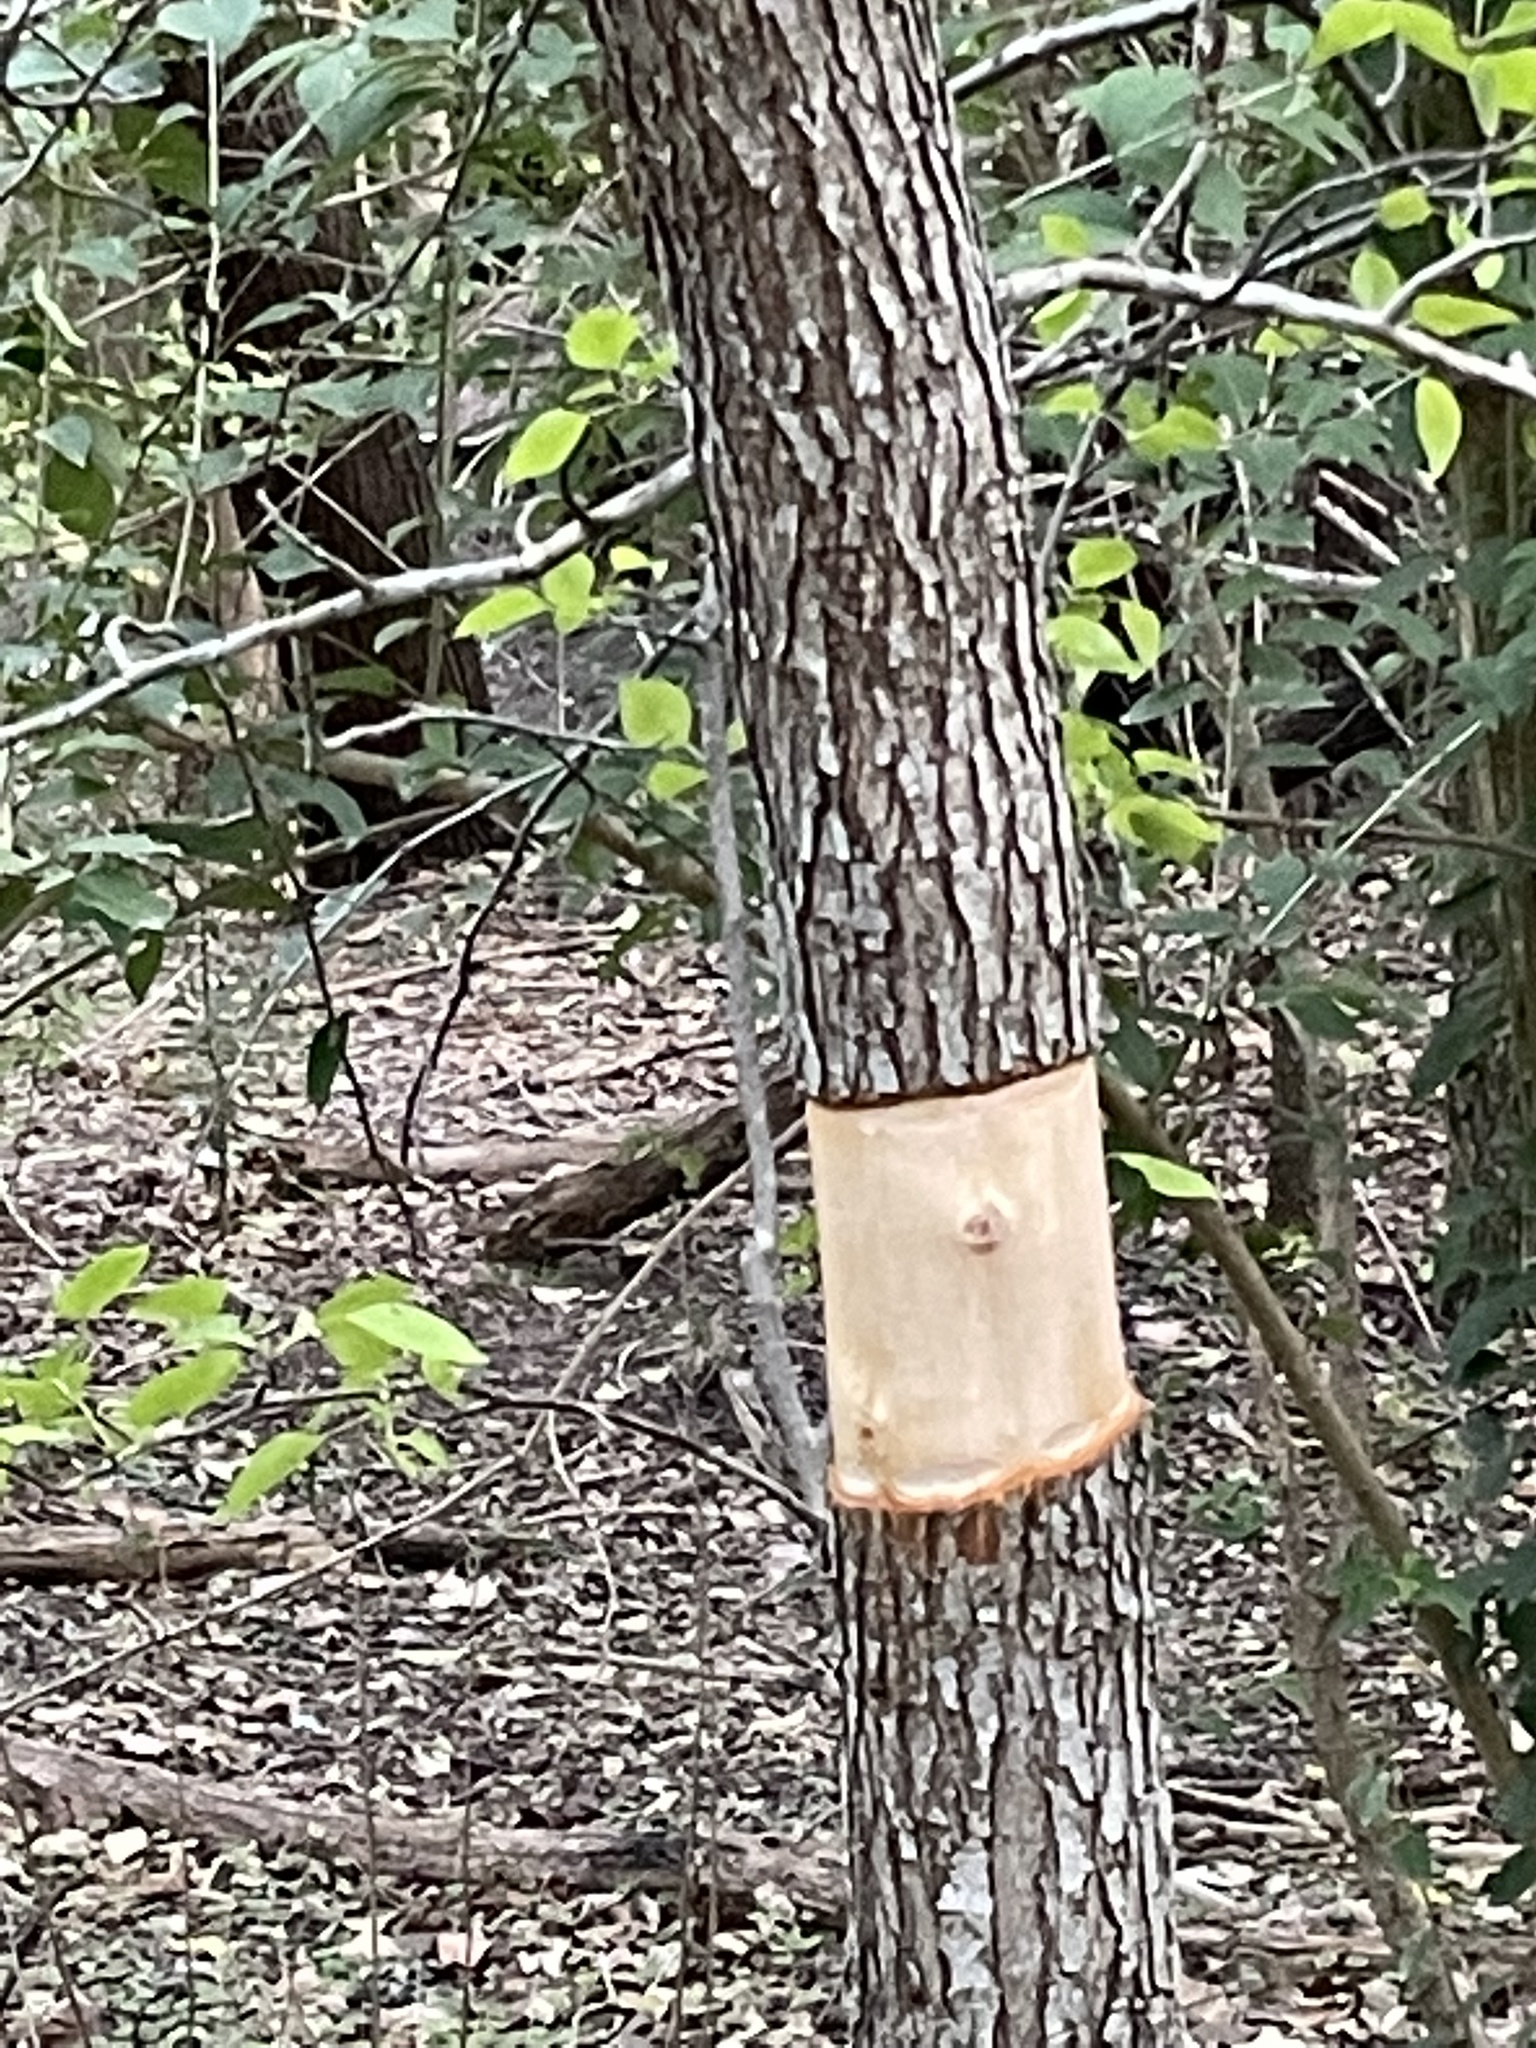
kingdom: Plantae
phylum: Tracheophyta
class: Magnoliopsida
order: Rosales
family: Rosaceae
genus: Pyrus
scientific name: Pyrus calleryana
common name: Callery pear
